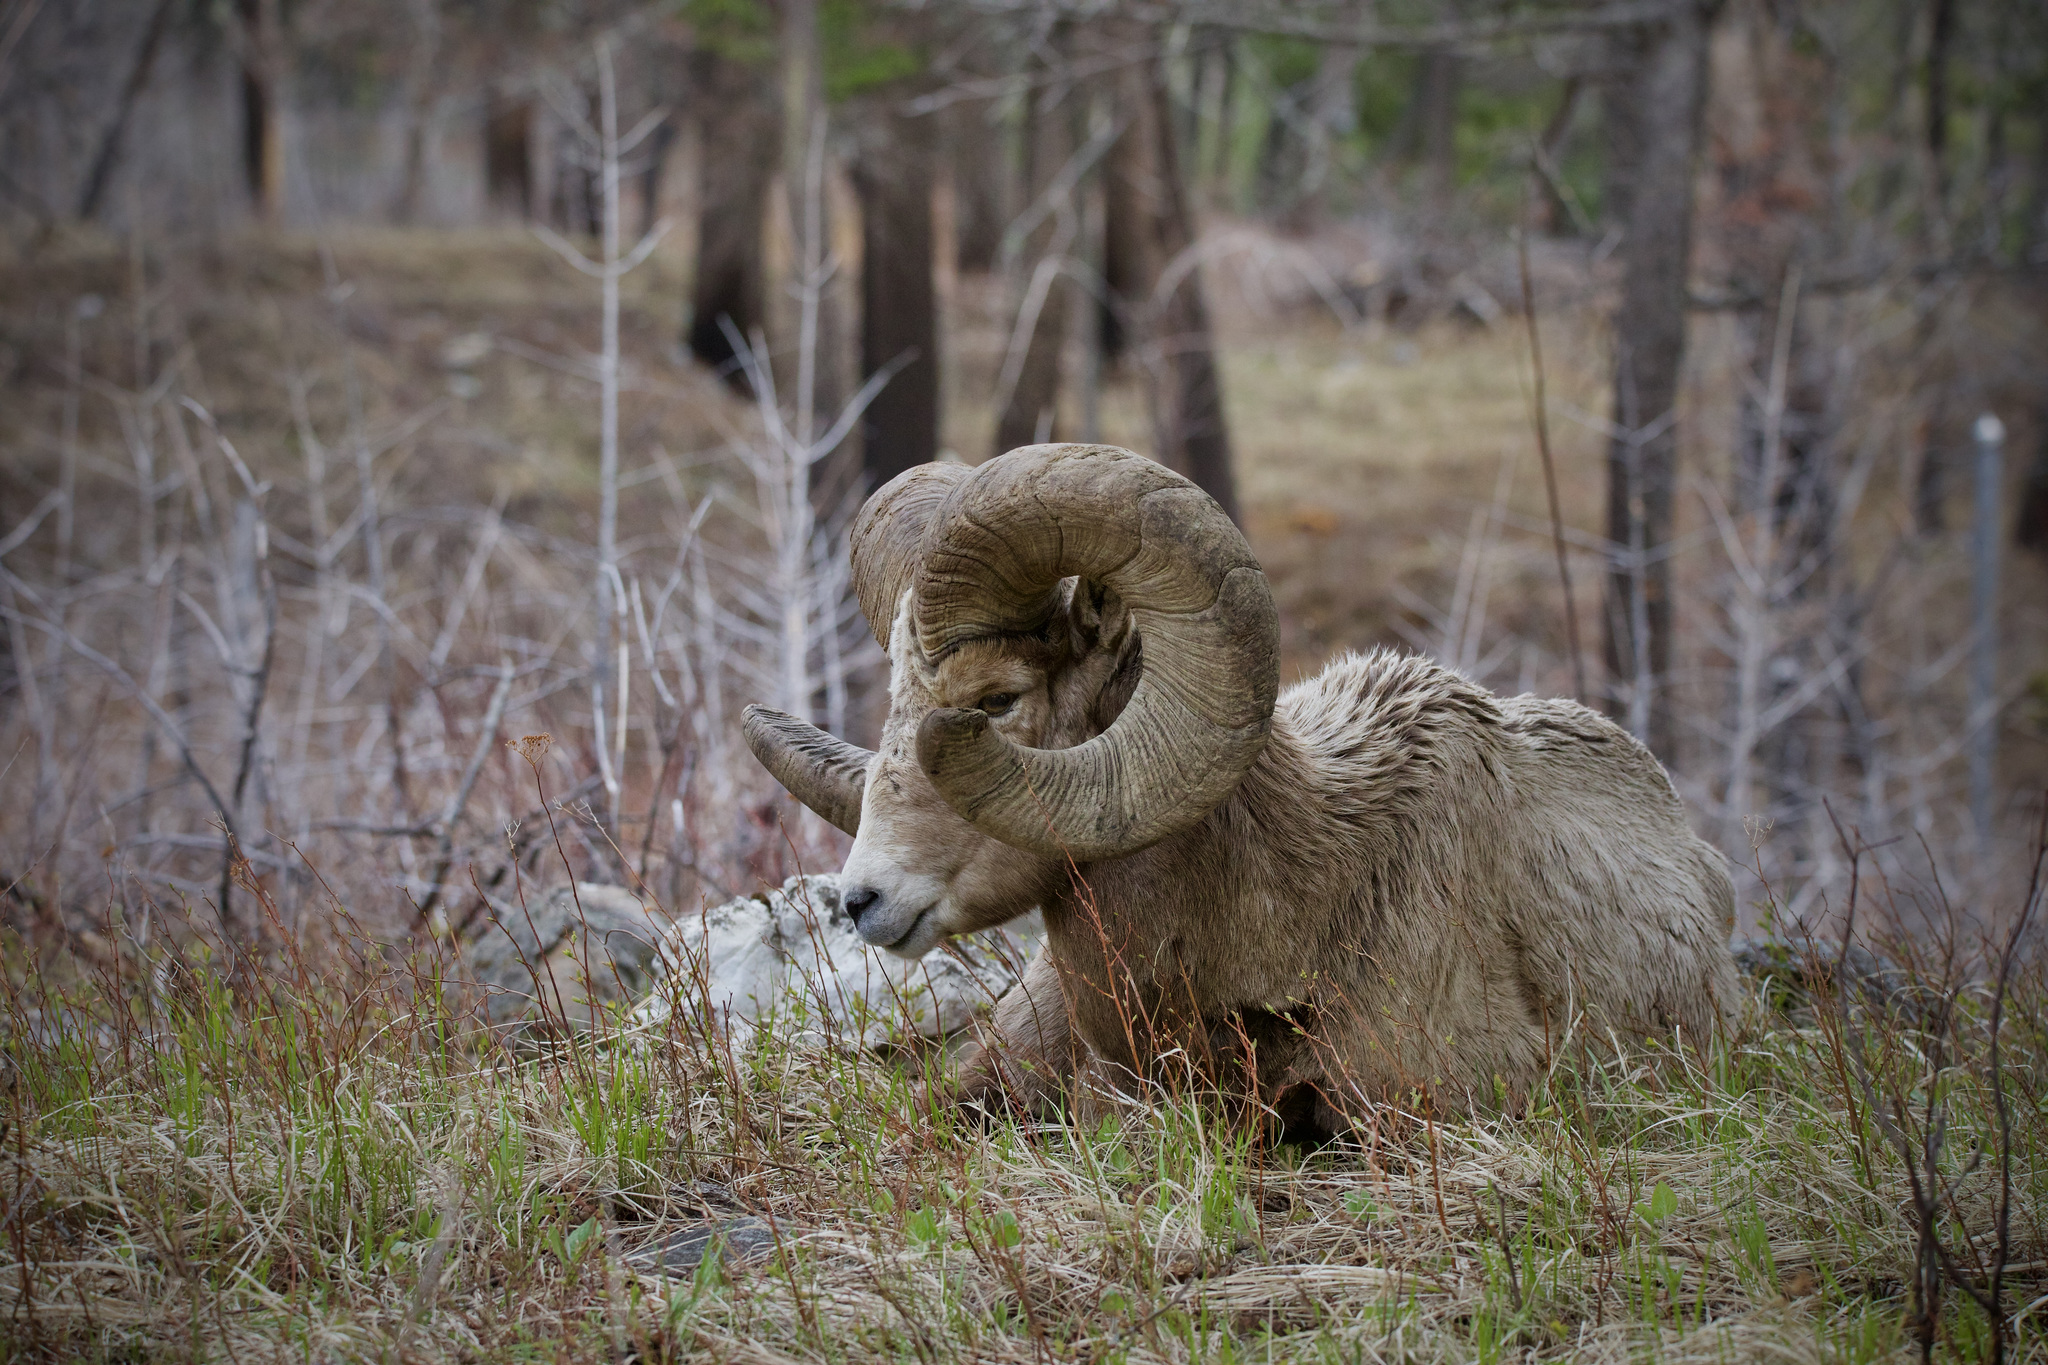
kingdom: Animalia
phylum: Chordata
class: Mammalia
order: Artiodactyla
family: Bovidae
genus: Ovis
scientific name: Ovis canadensis
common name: Bighorn sheep
